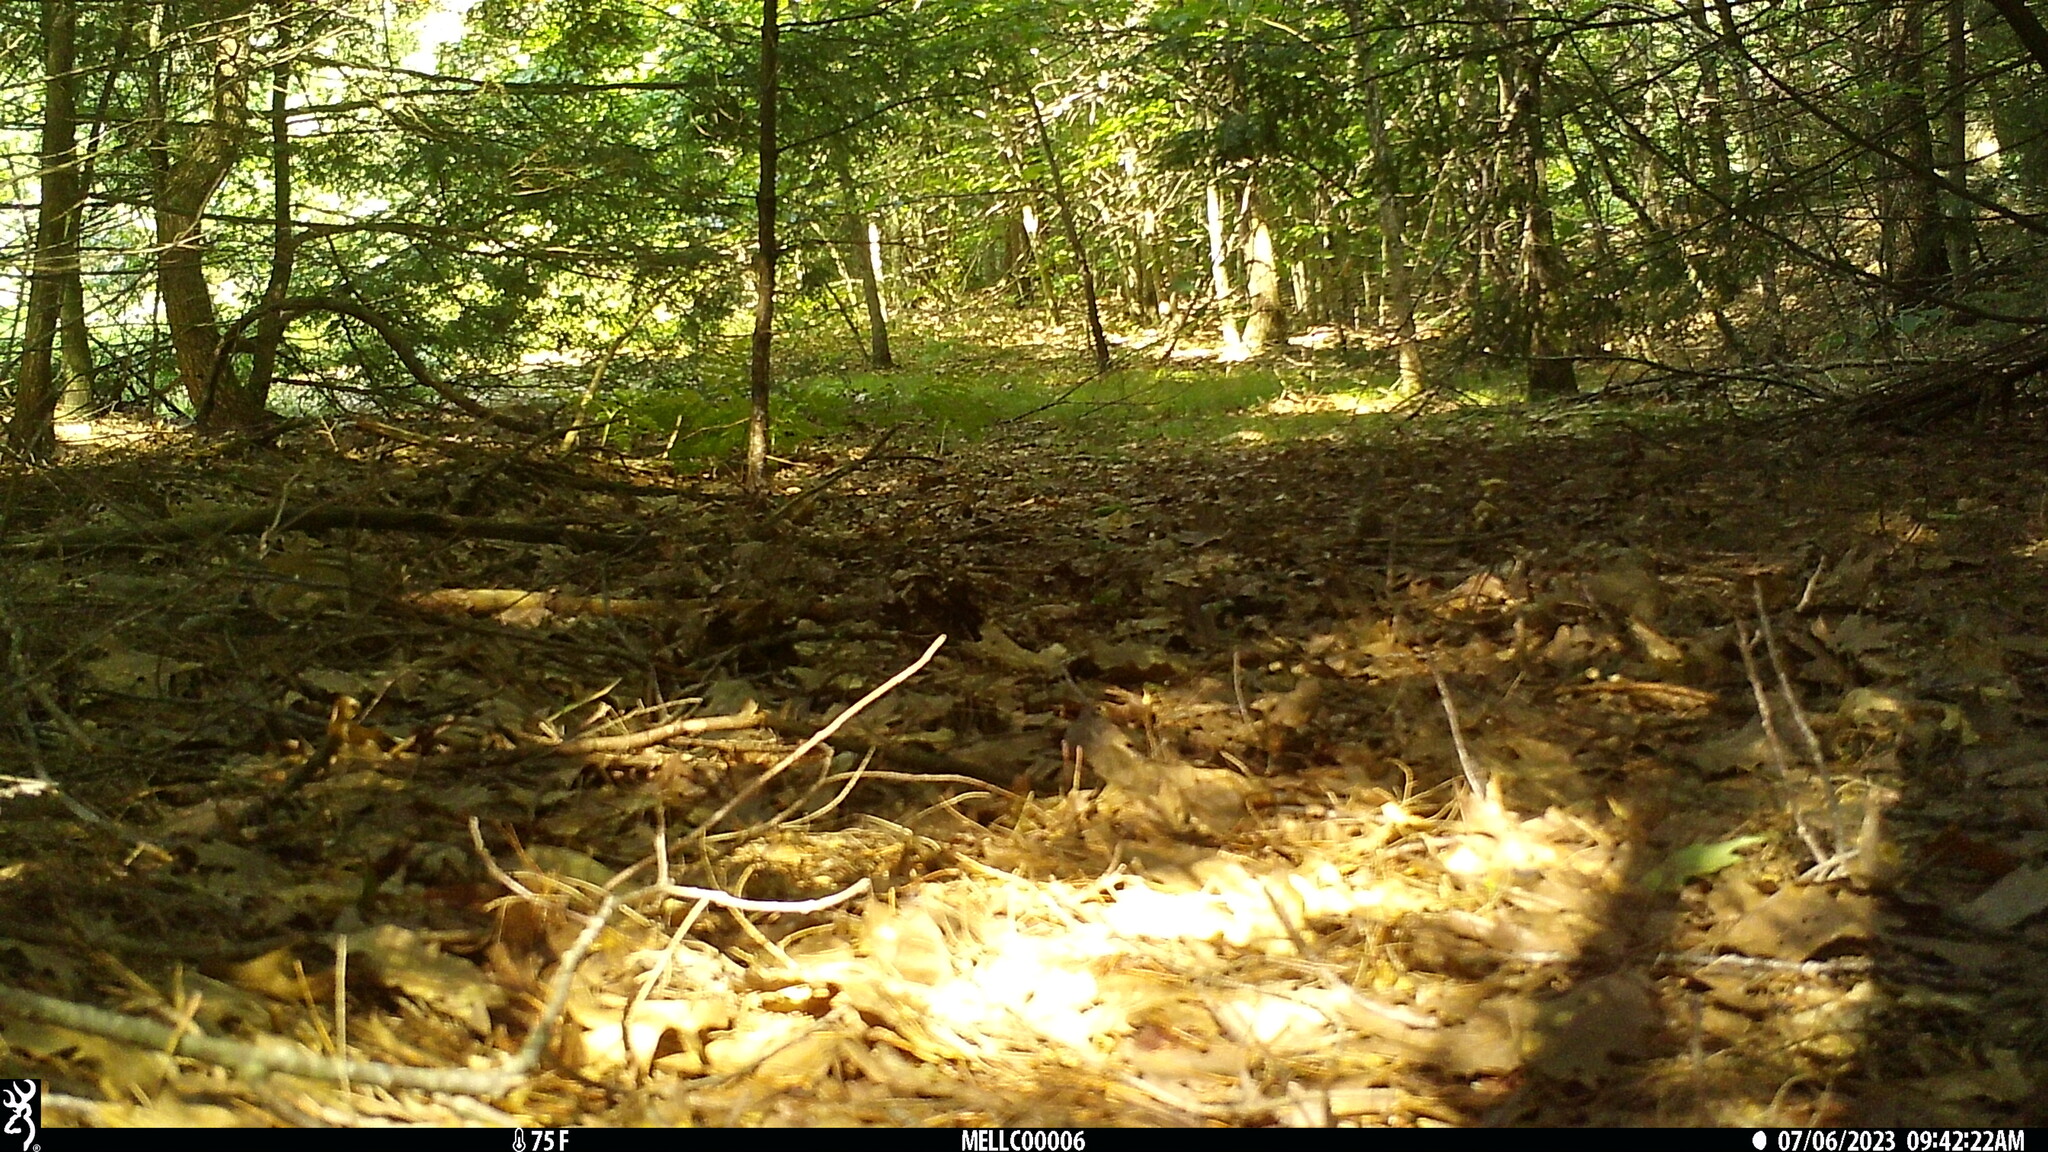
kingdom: Animalia
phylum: Chordata
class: Mammalia
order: Rodentia
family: Sciuridae
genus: Tamias
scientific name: Tamias striatus
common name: Eastern chipmunk
